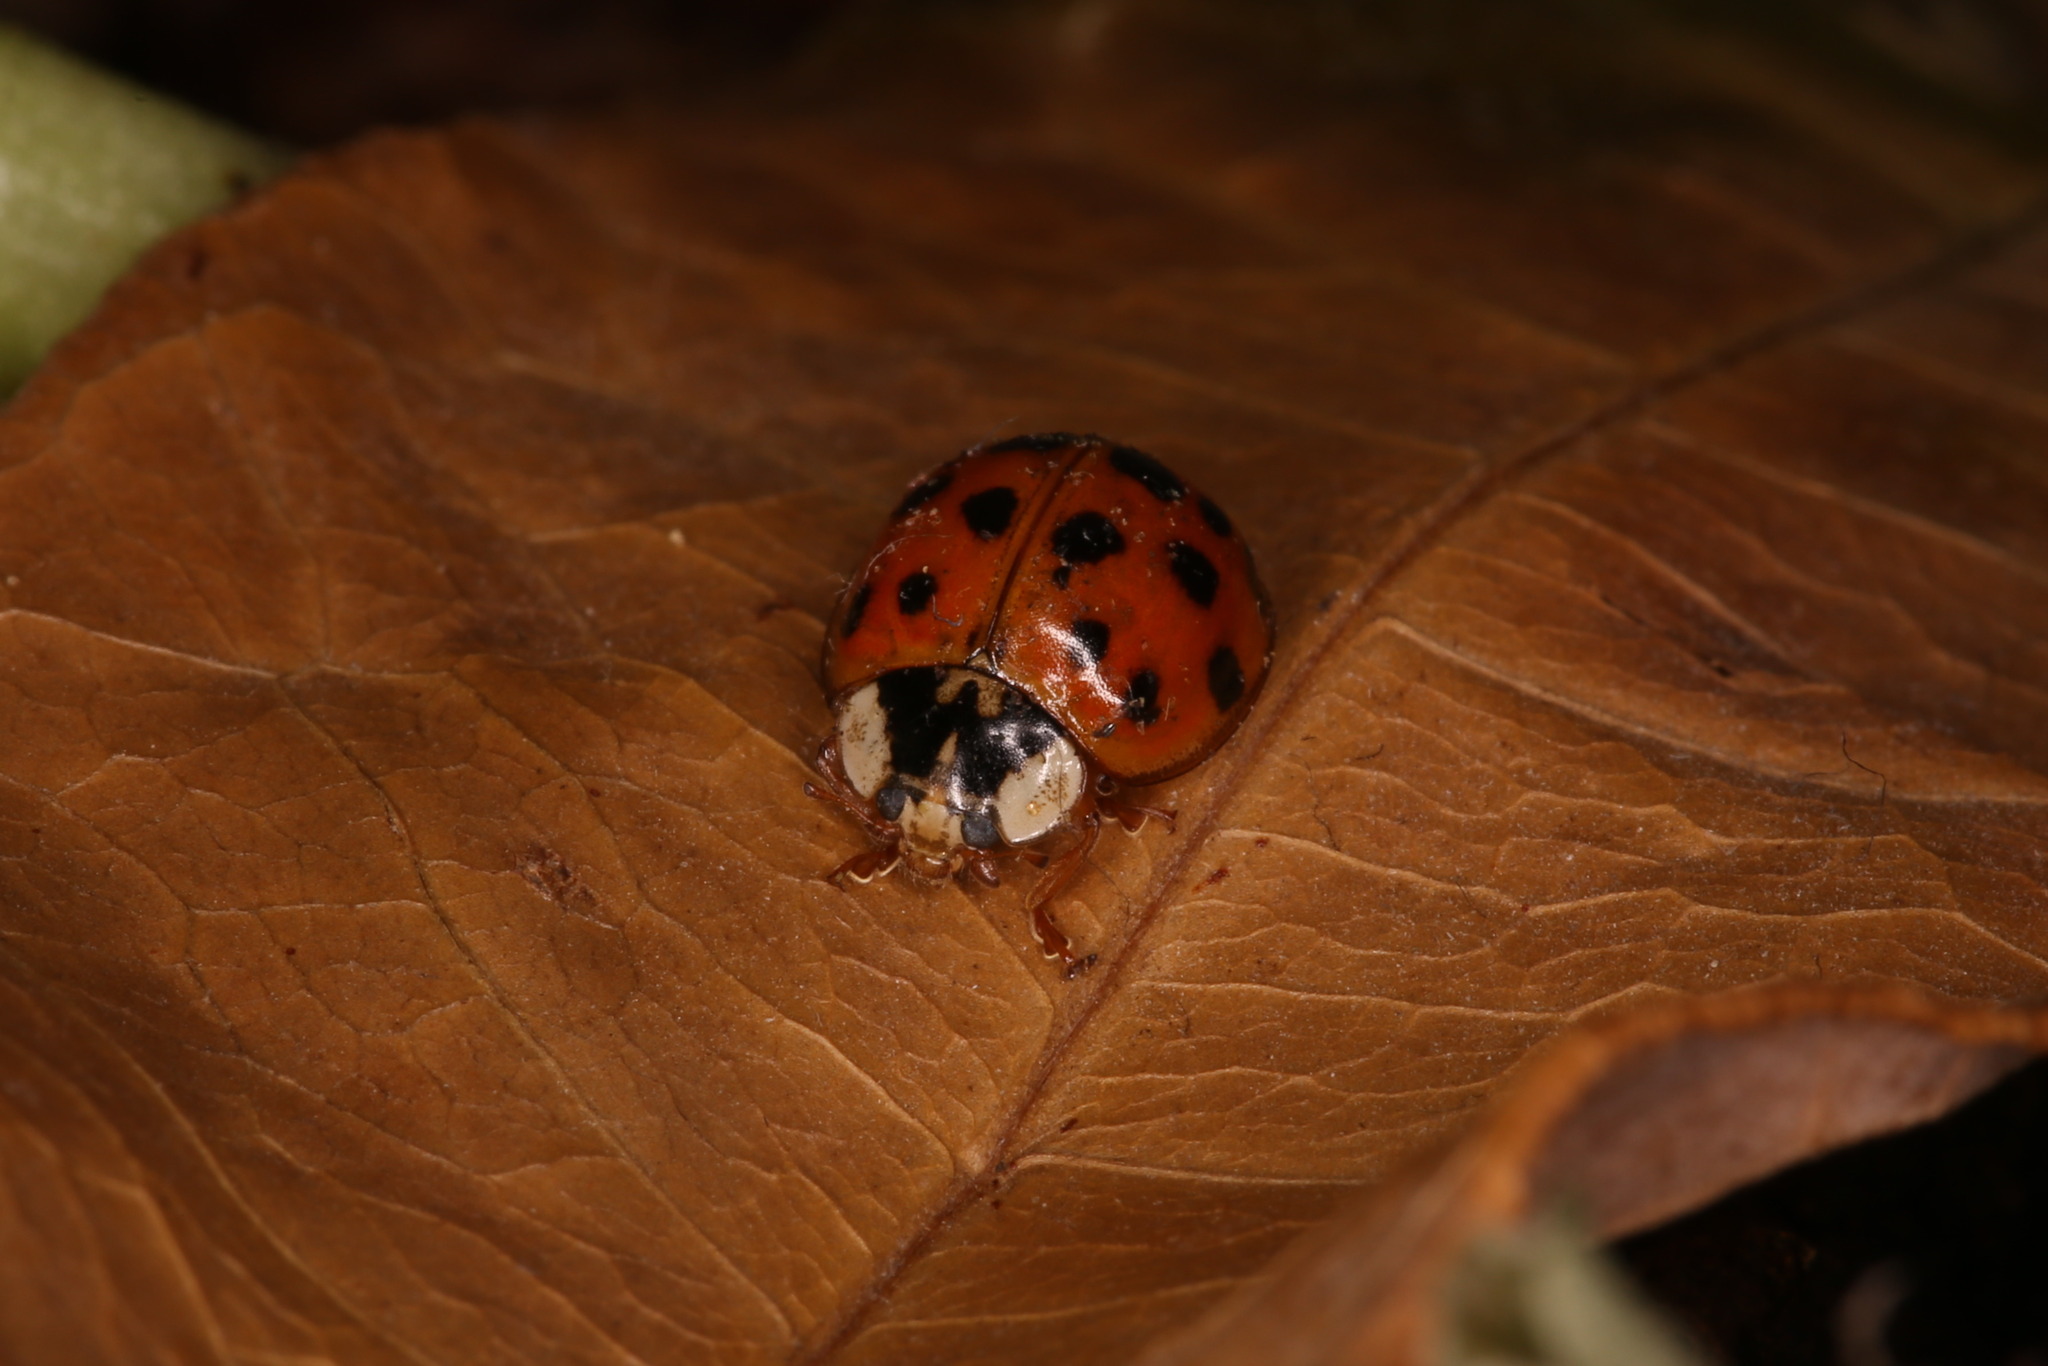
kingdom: Animalia
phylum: Arthropoda
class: Insecta
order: Coleoptera
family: Coccinellidae
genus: Harmonia
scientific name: Harmonia axyridis
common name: Harlequin ladybird
